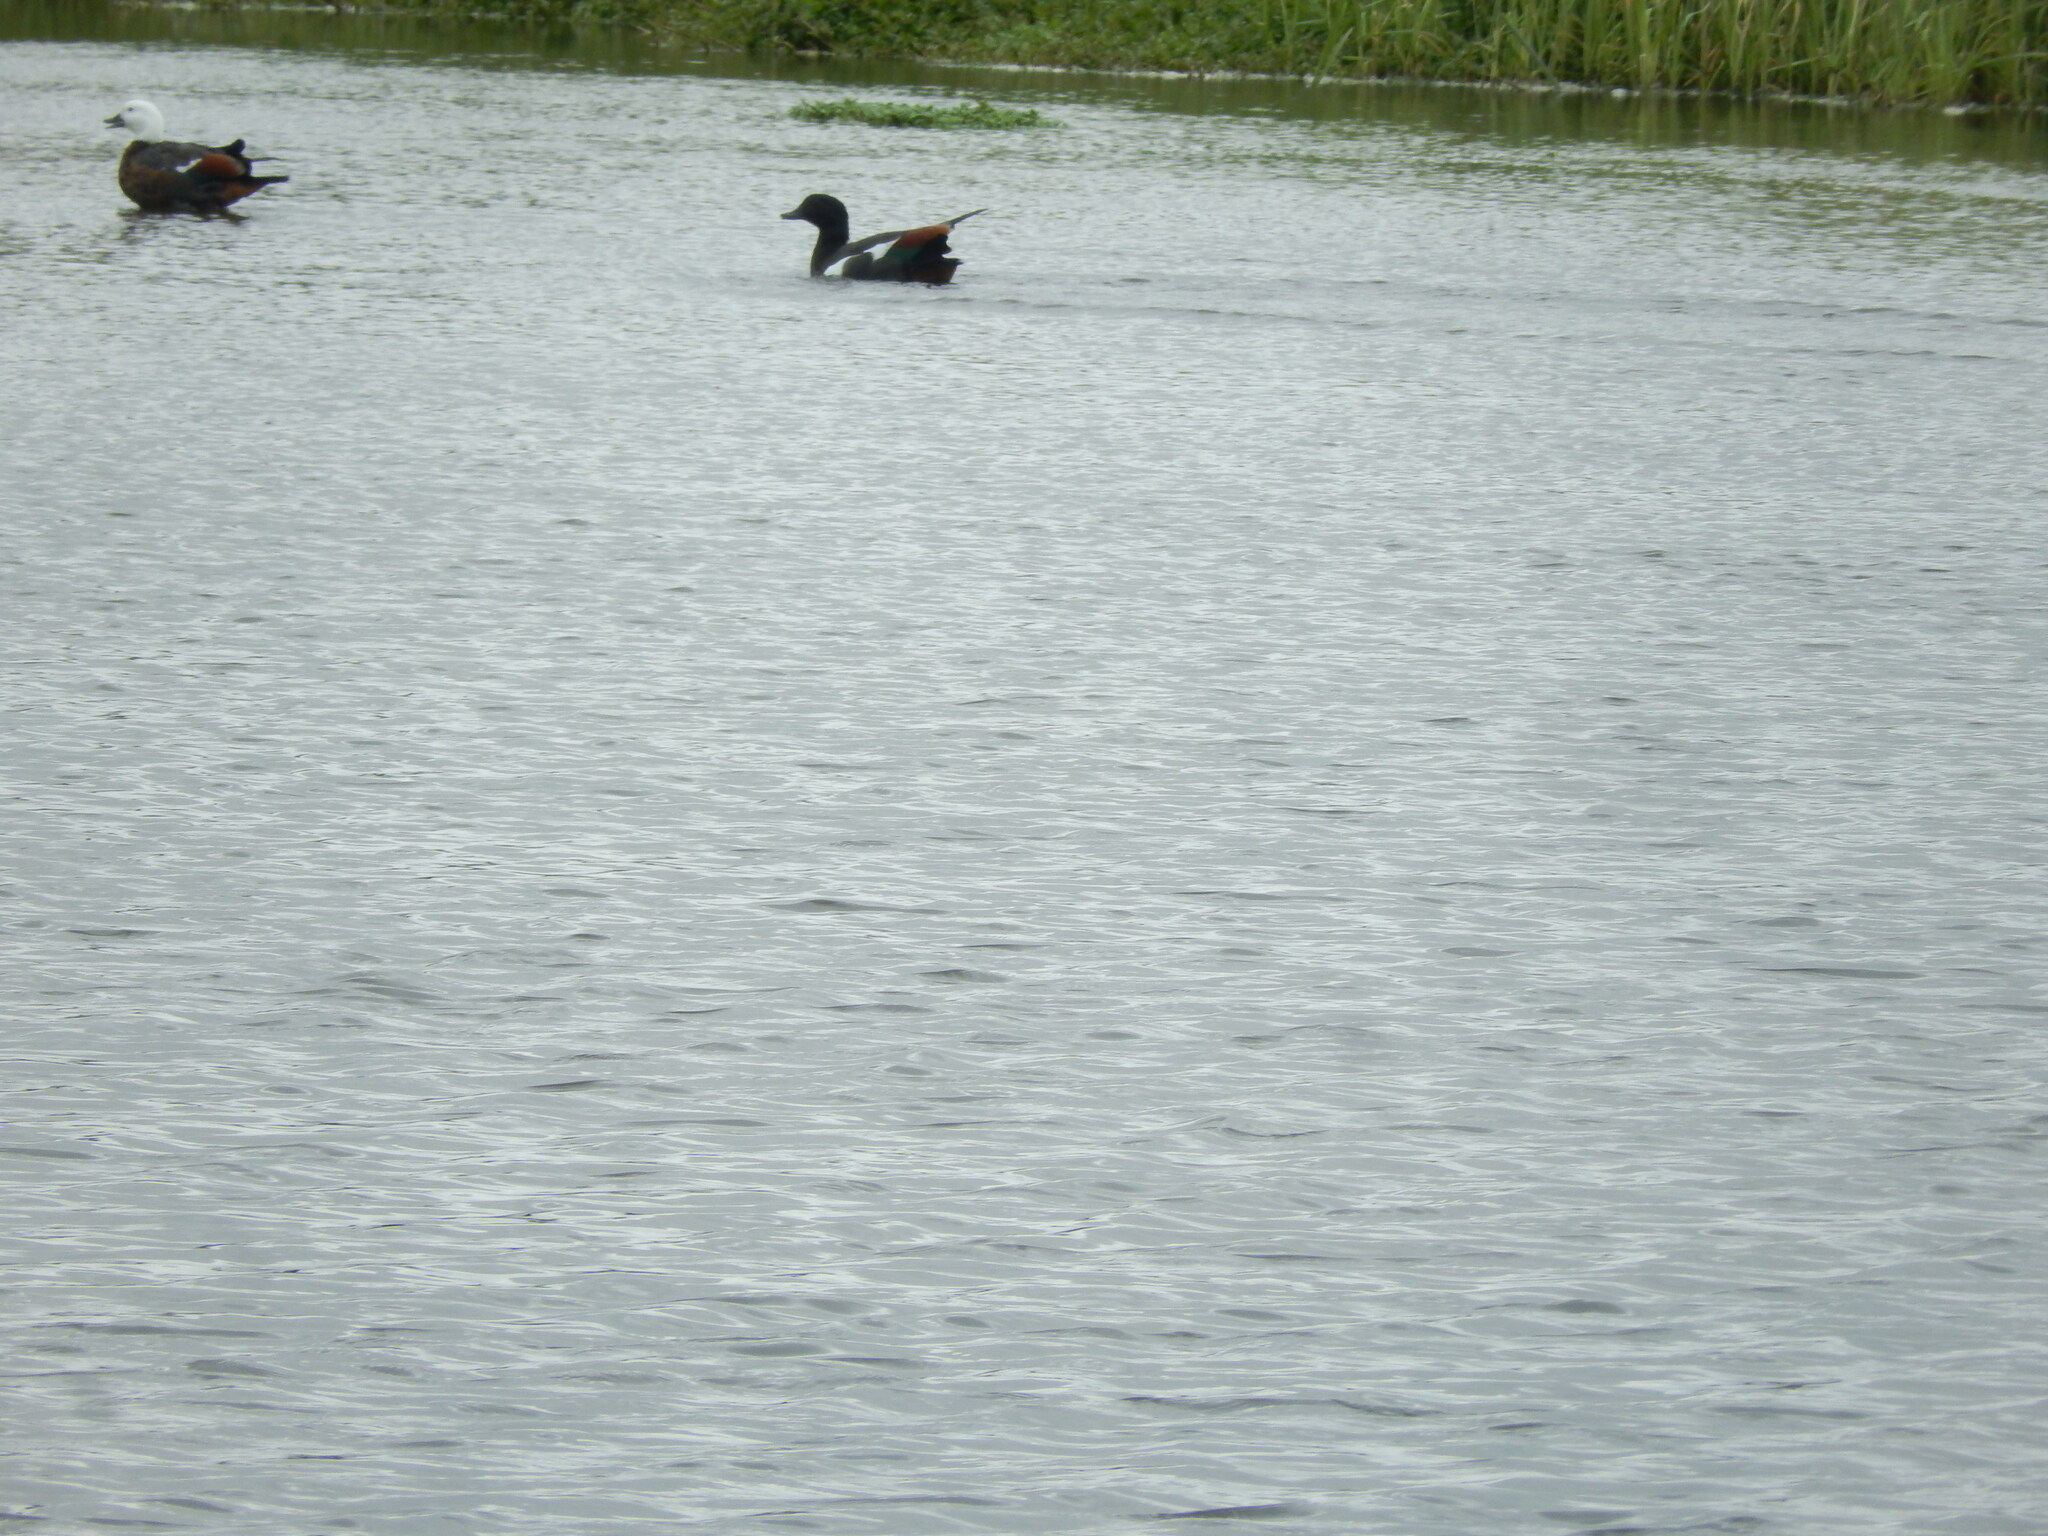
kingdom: Animalia
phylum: Chordata
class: Aves
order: Anseriformes
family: Anatidae
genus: Tadorna
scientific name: Tadorna variegata
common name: Paradise shelduck
